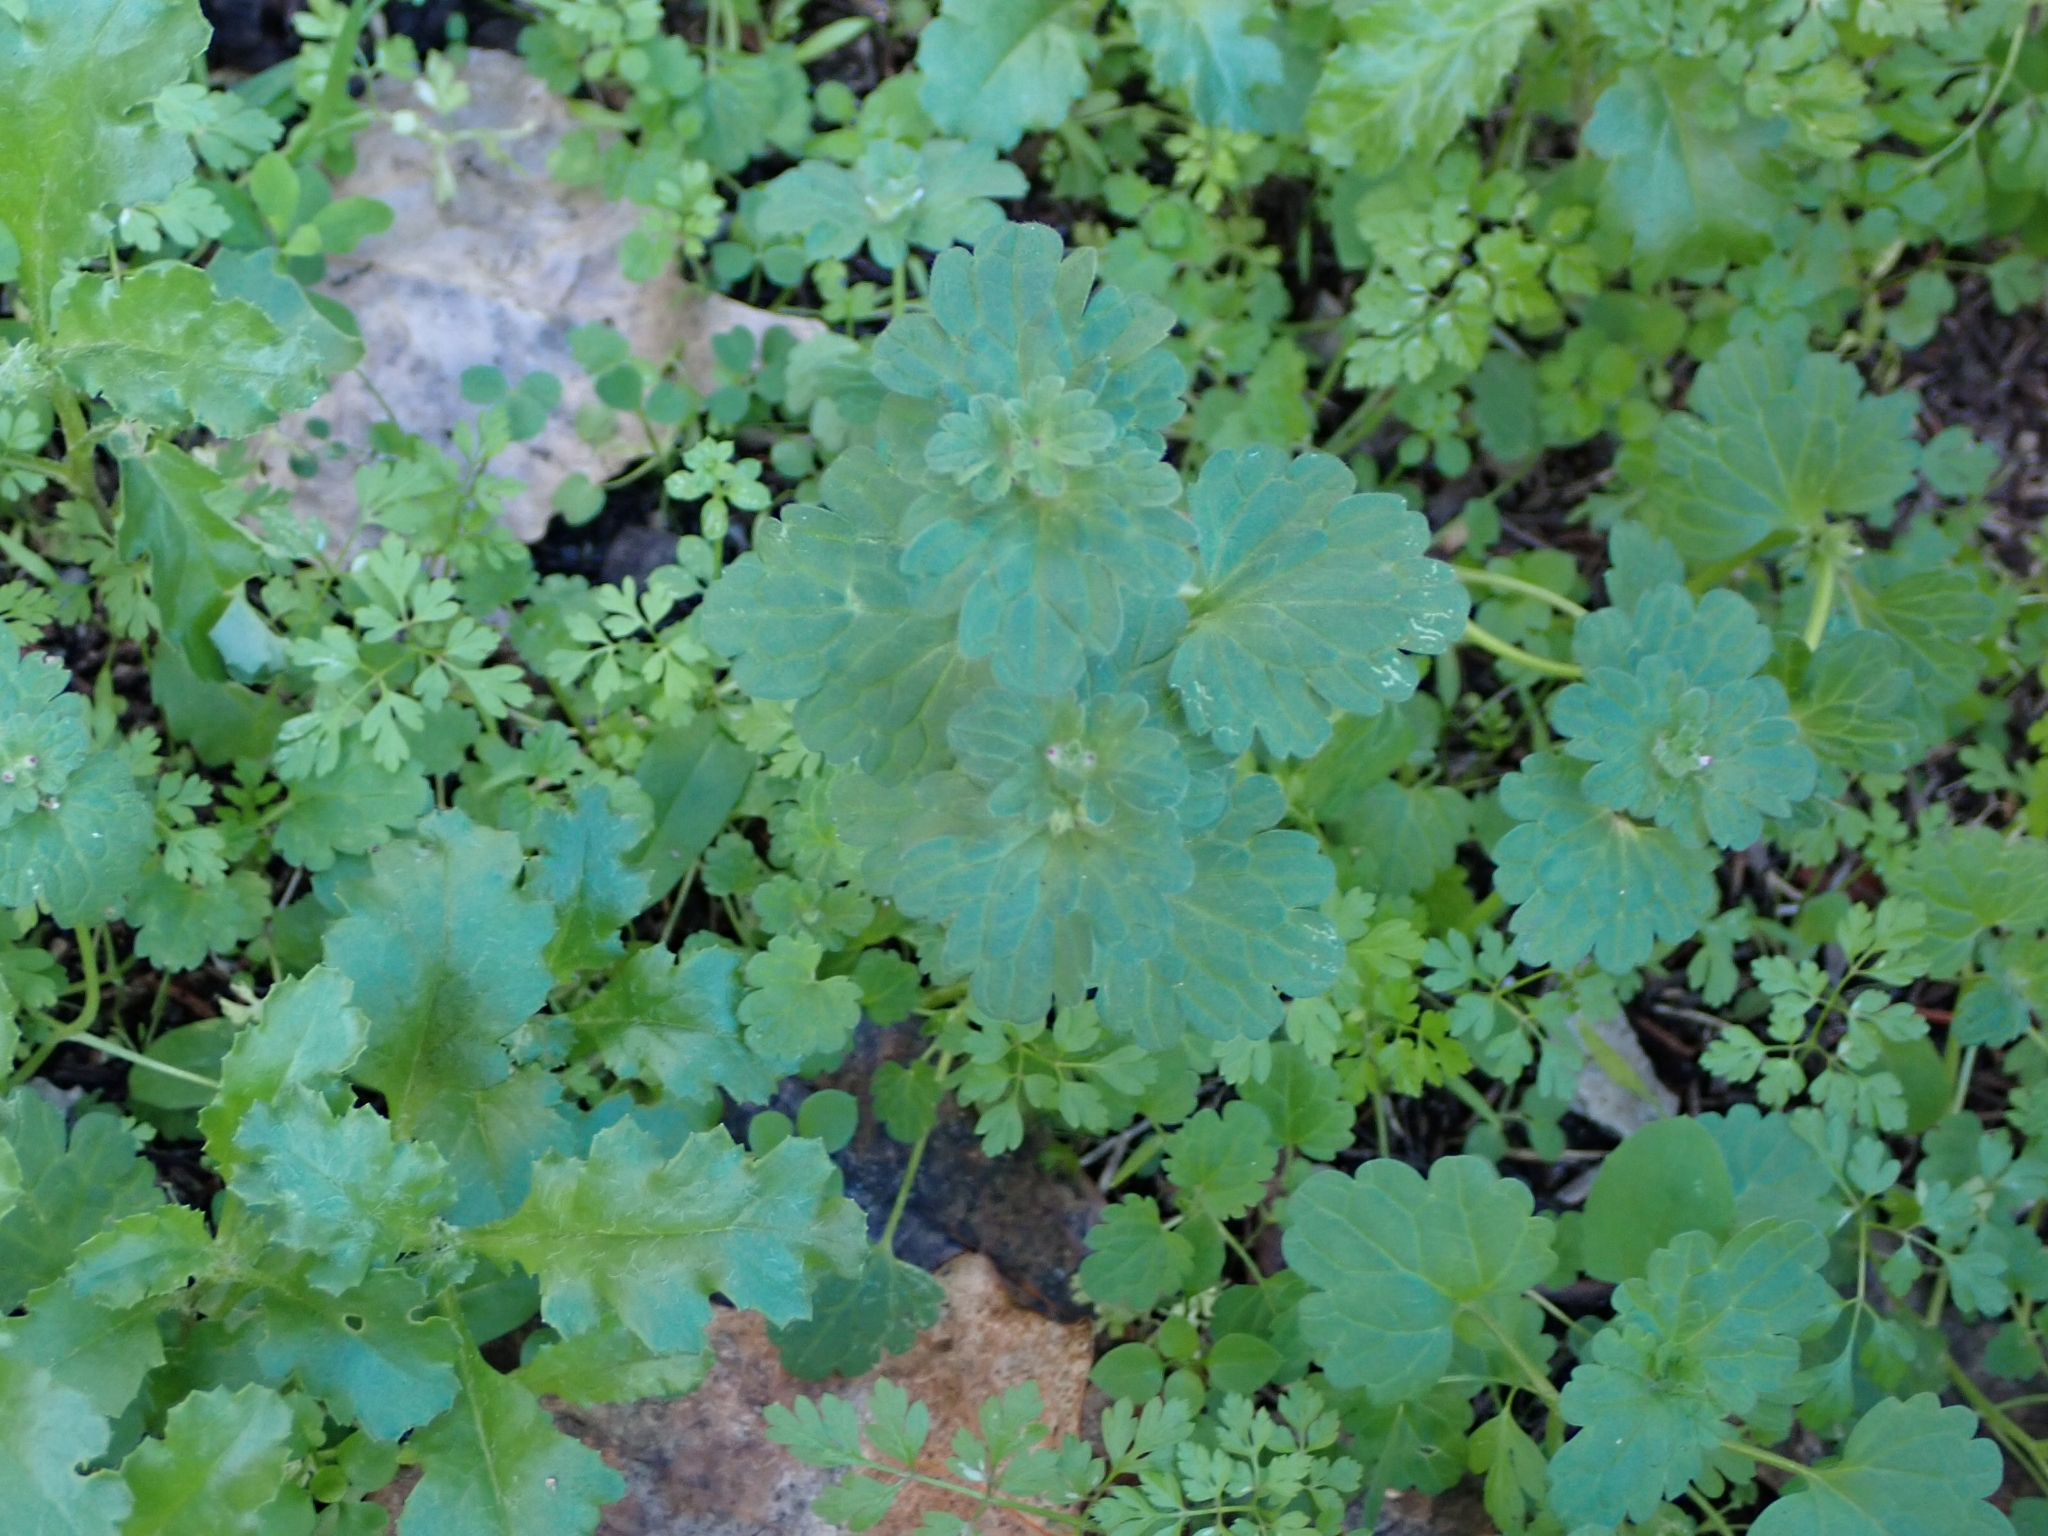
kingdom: Plantae
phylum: Tracheophyta
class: Magnoliopsida
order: Lamiales
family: Lamiaceae
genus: Lamium
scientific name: Lamium amplexicaule
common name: Henbit dead-nettle
